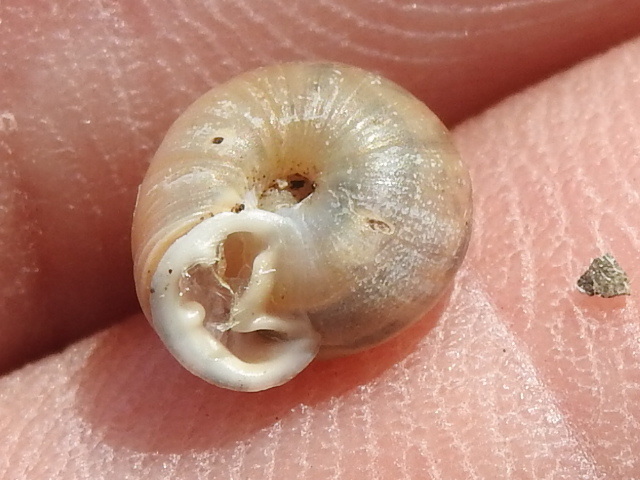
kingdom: Animalia
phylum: Mollusca
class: Gastropoda
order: Stylommatophora
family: Polygyridae
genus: Linisa
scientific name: Linisa texasiana
